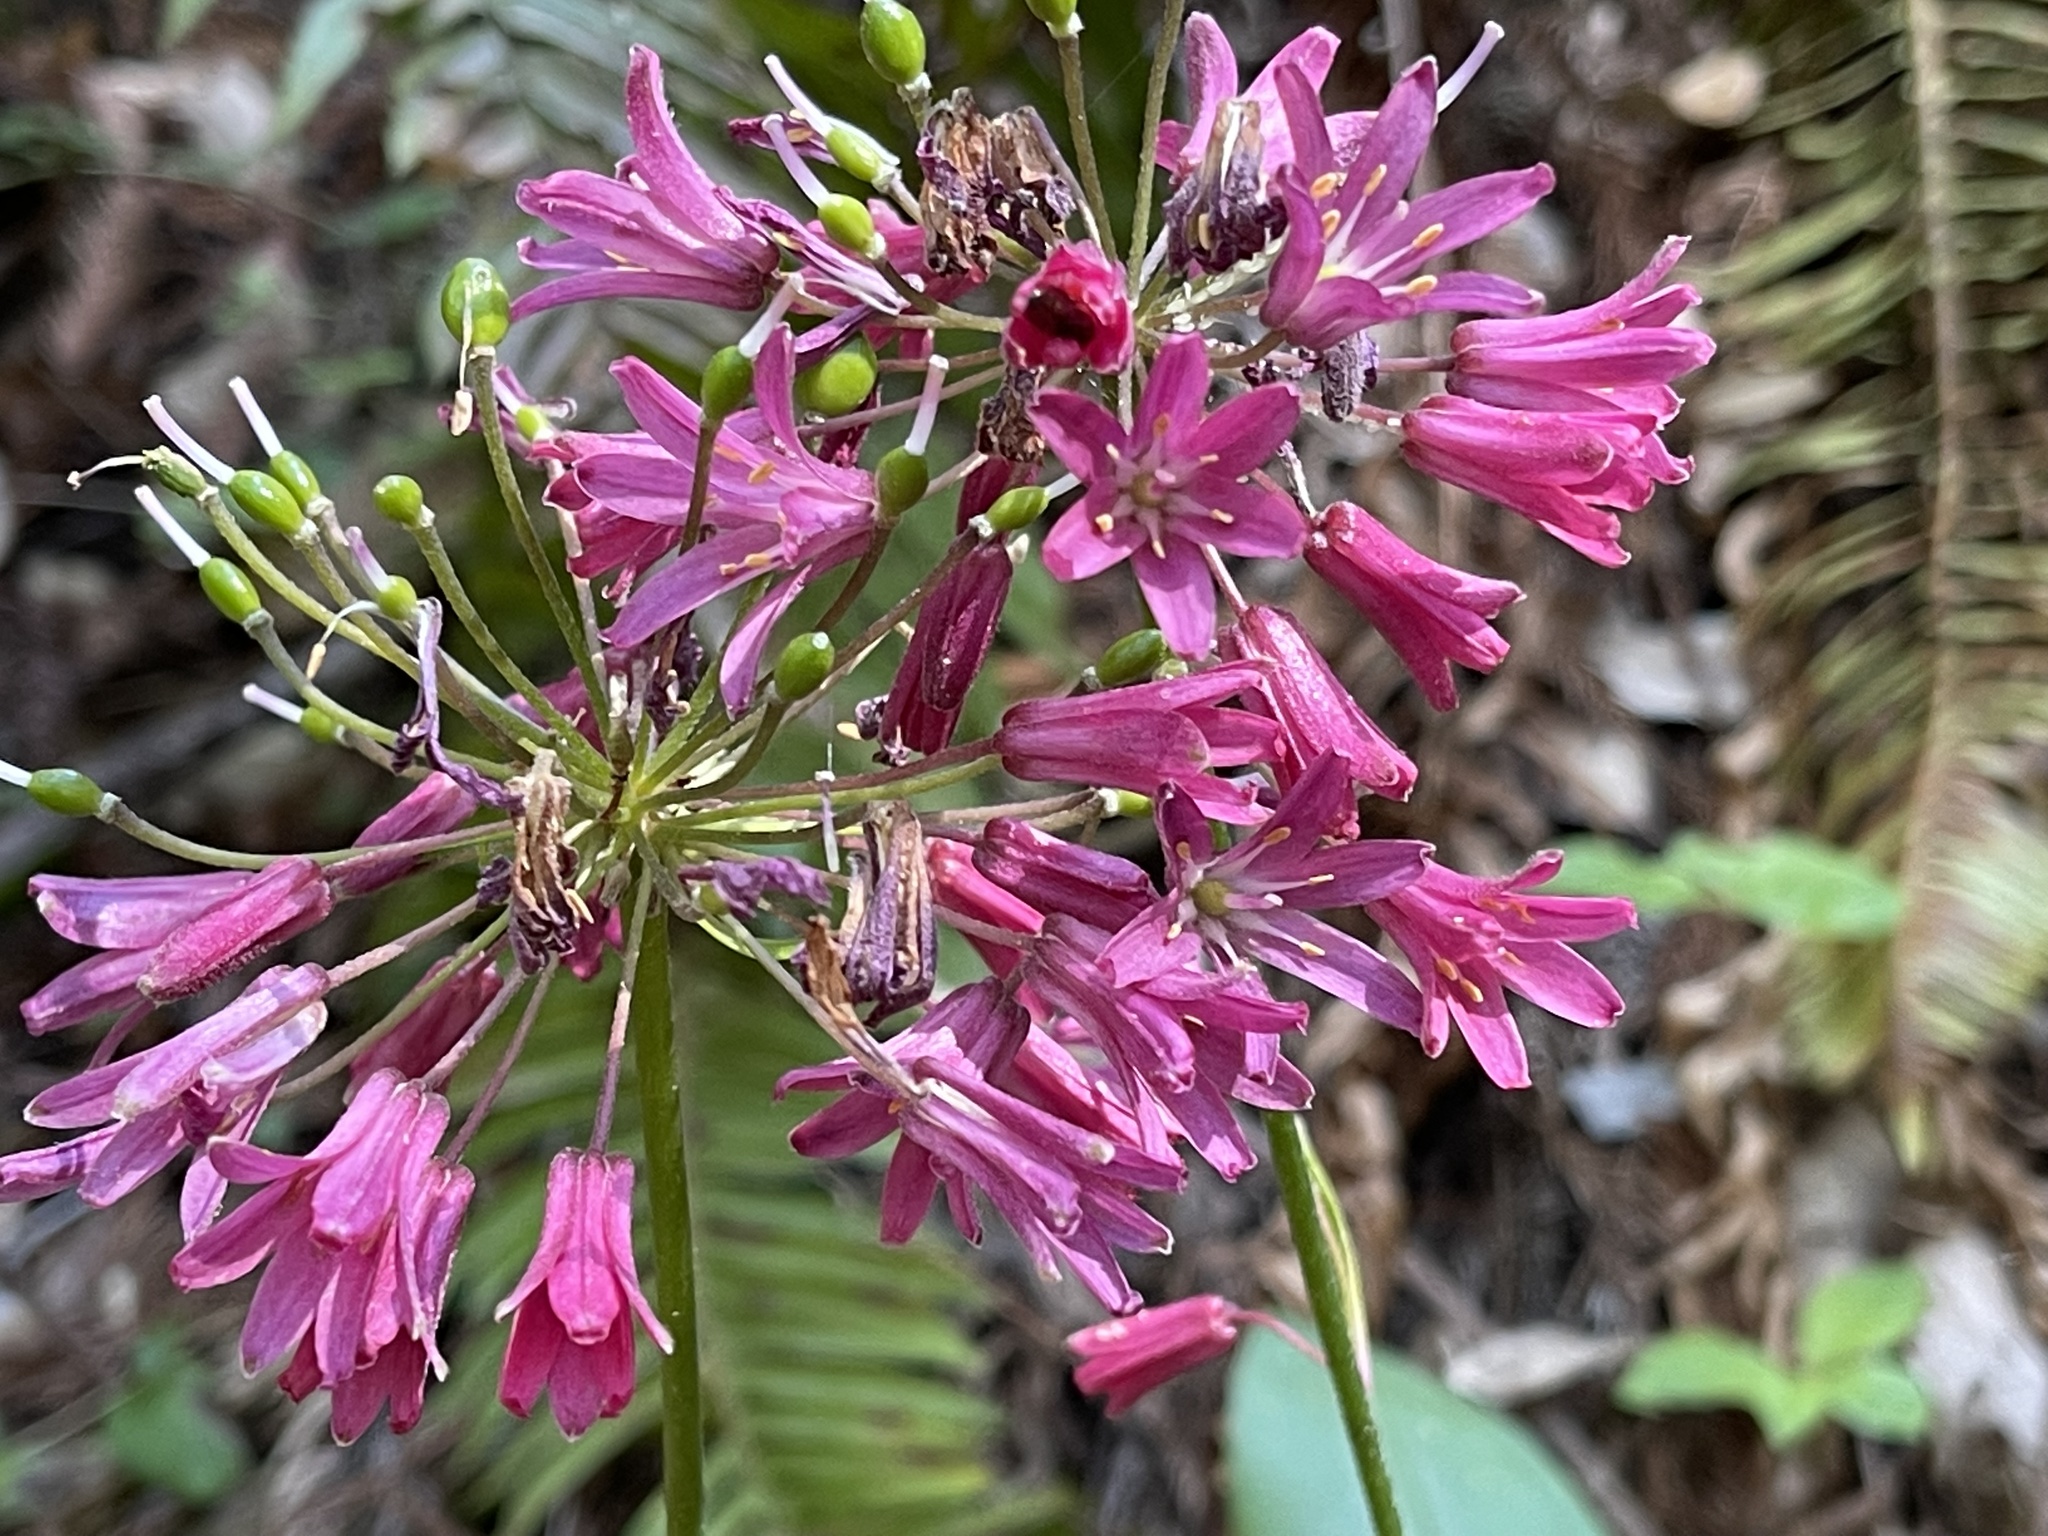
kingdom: Plantae
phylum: Tracheophyta
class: Liliopsida
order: Liliales
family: Liliaceae
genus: Clintonia
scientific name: Clintonia andrewsiana
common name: Red clintonia
